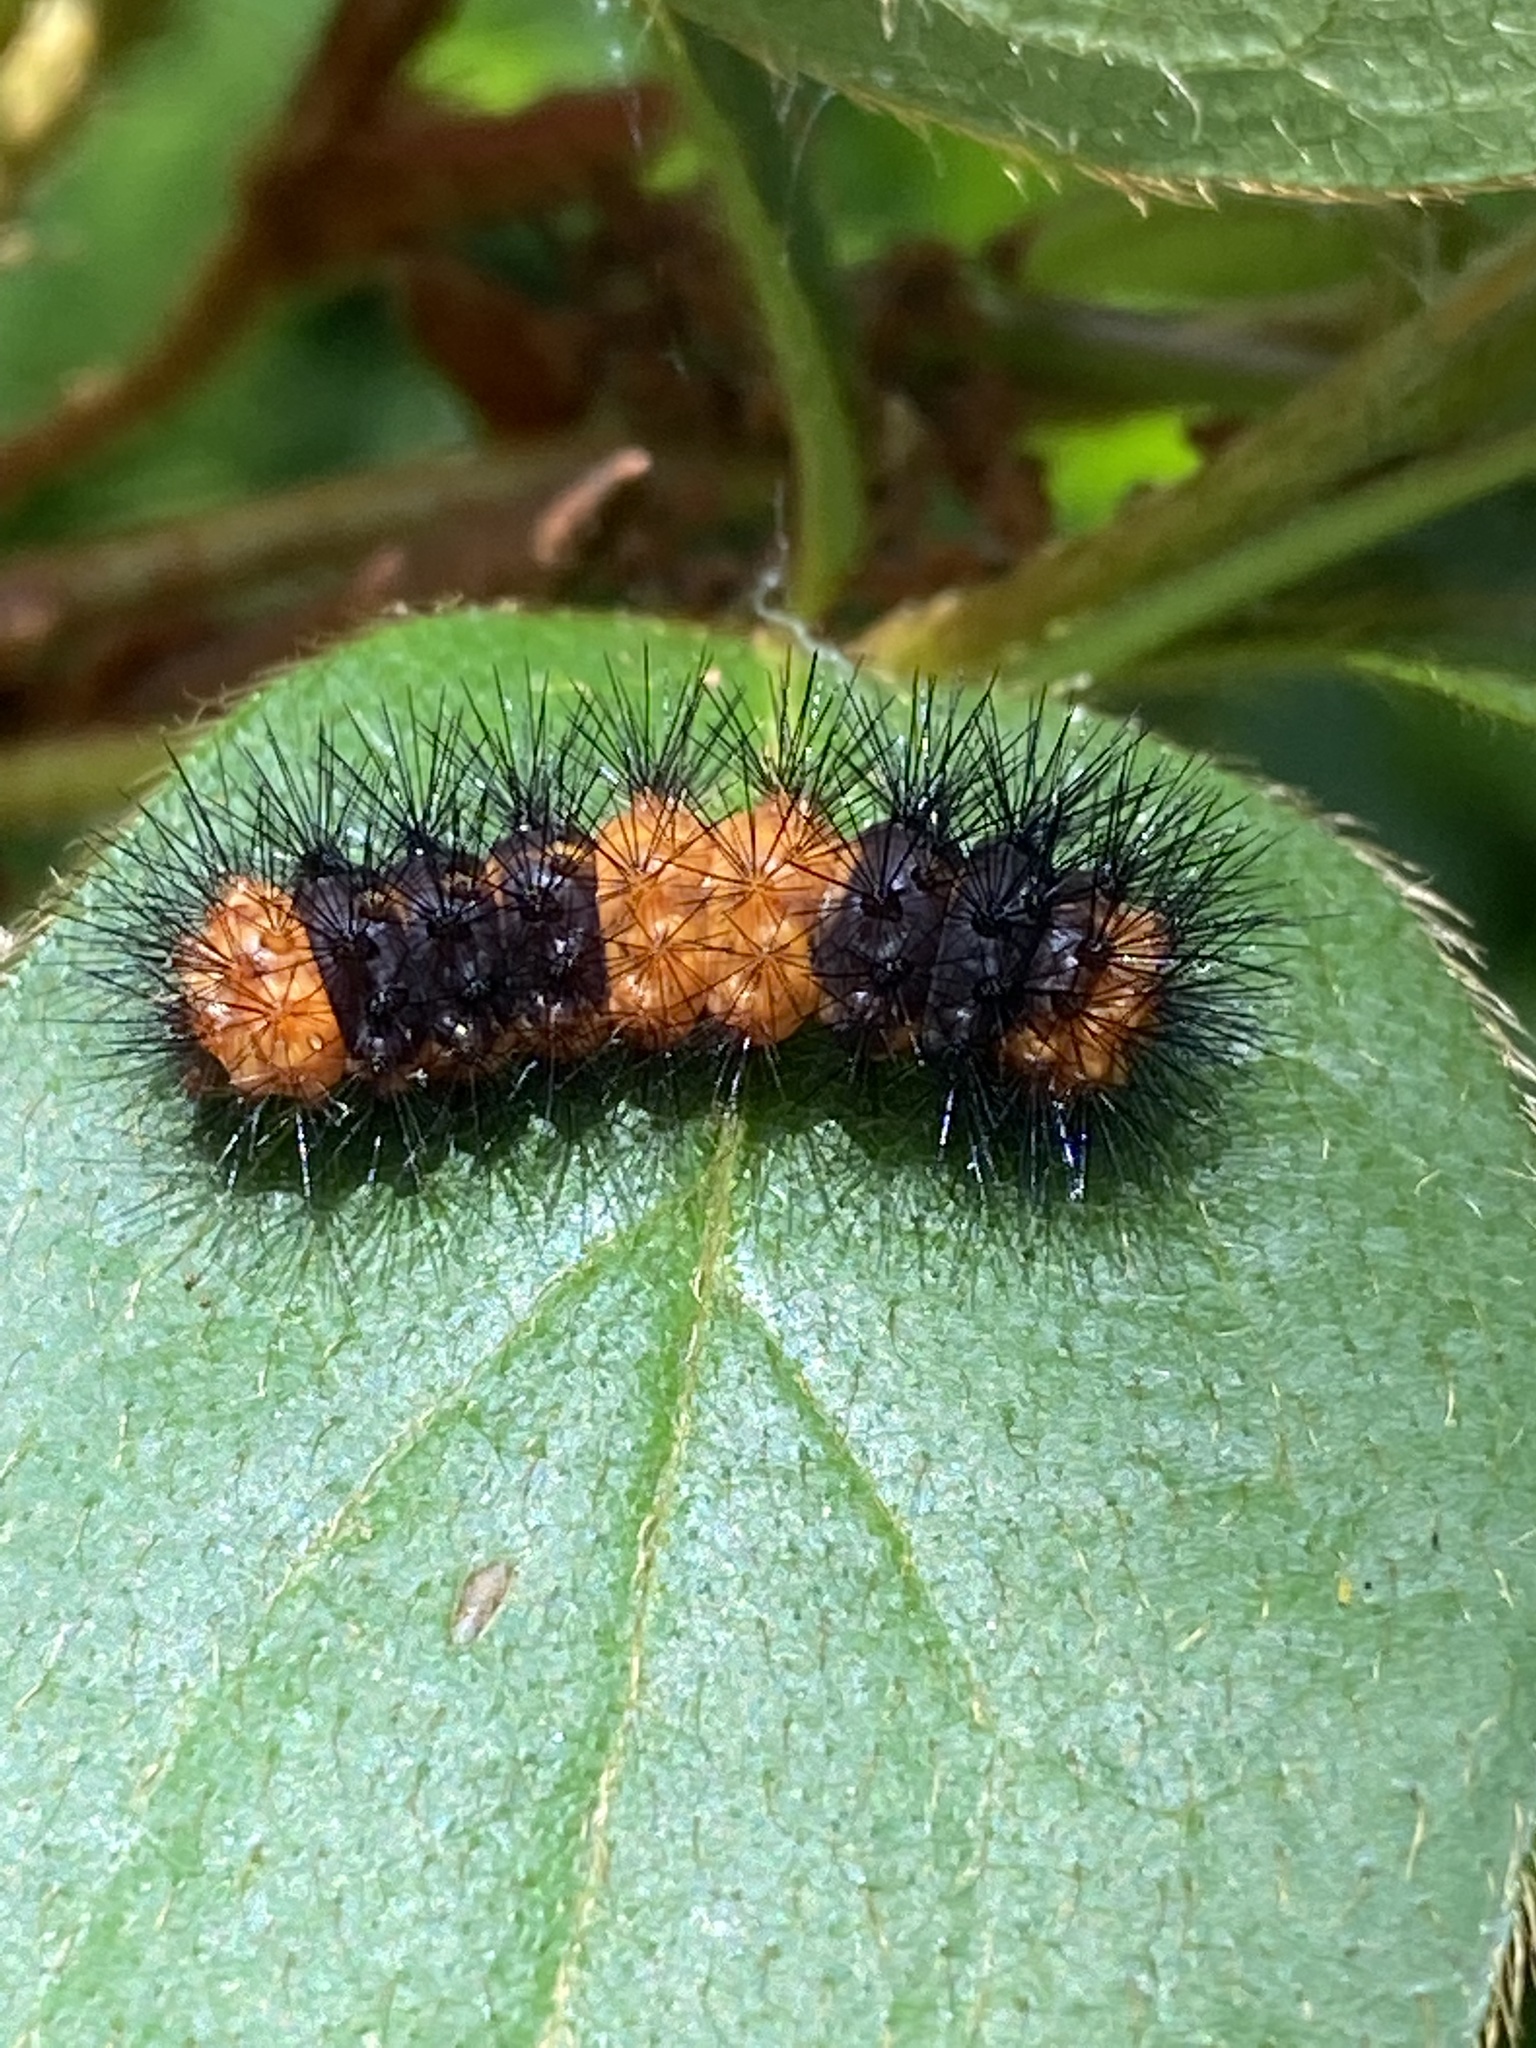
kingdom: Animalia
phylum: Arthropoda
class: Insecta
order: Lepidoptera
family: Erebidae
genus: Hypercompe
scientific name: Hypercompe scribonia
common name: Giant leopard moth
